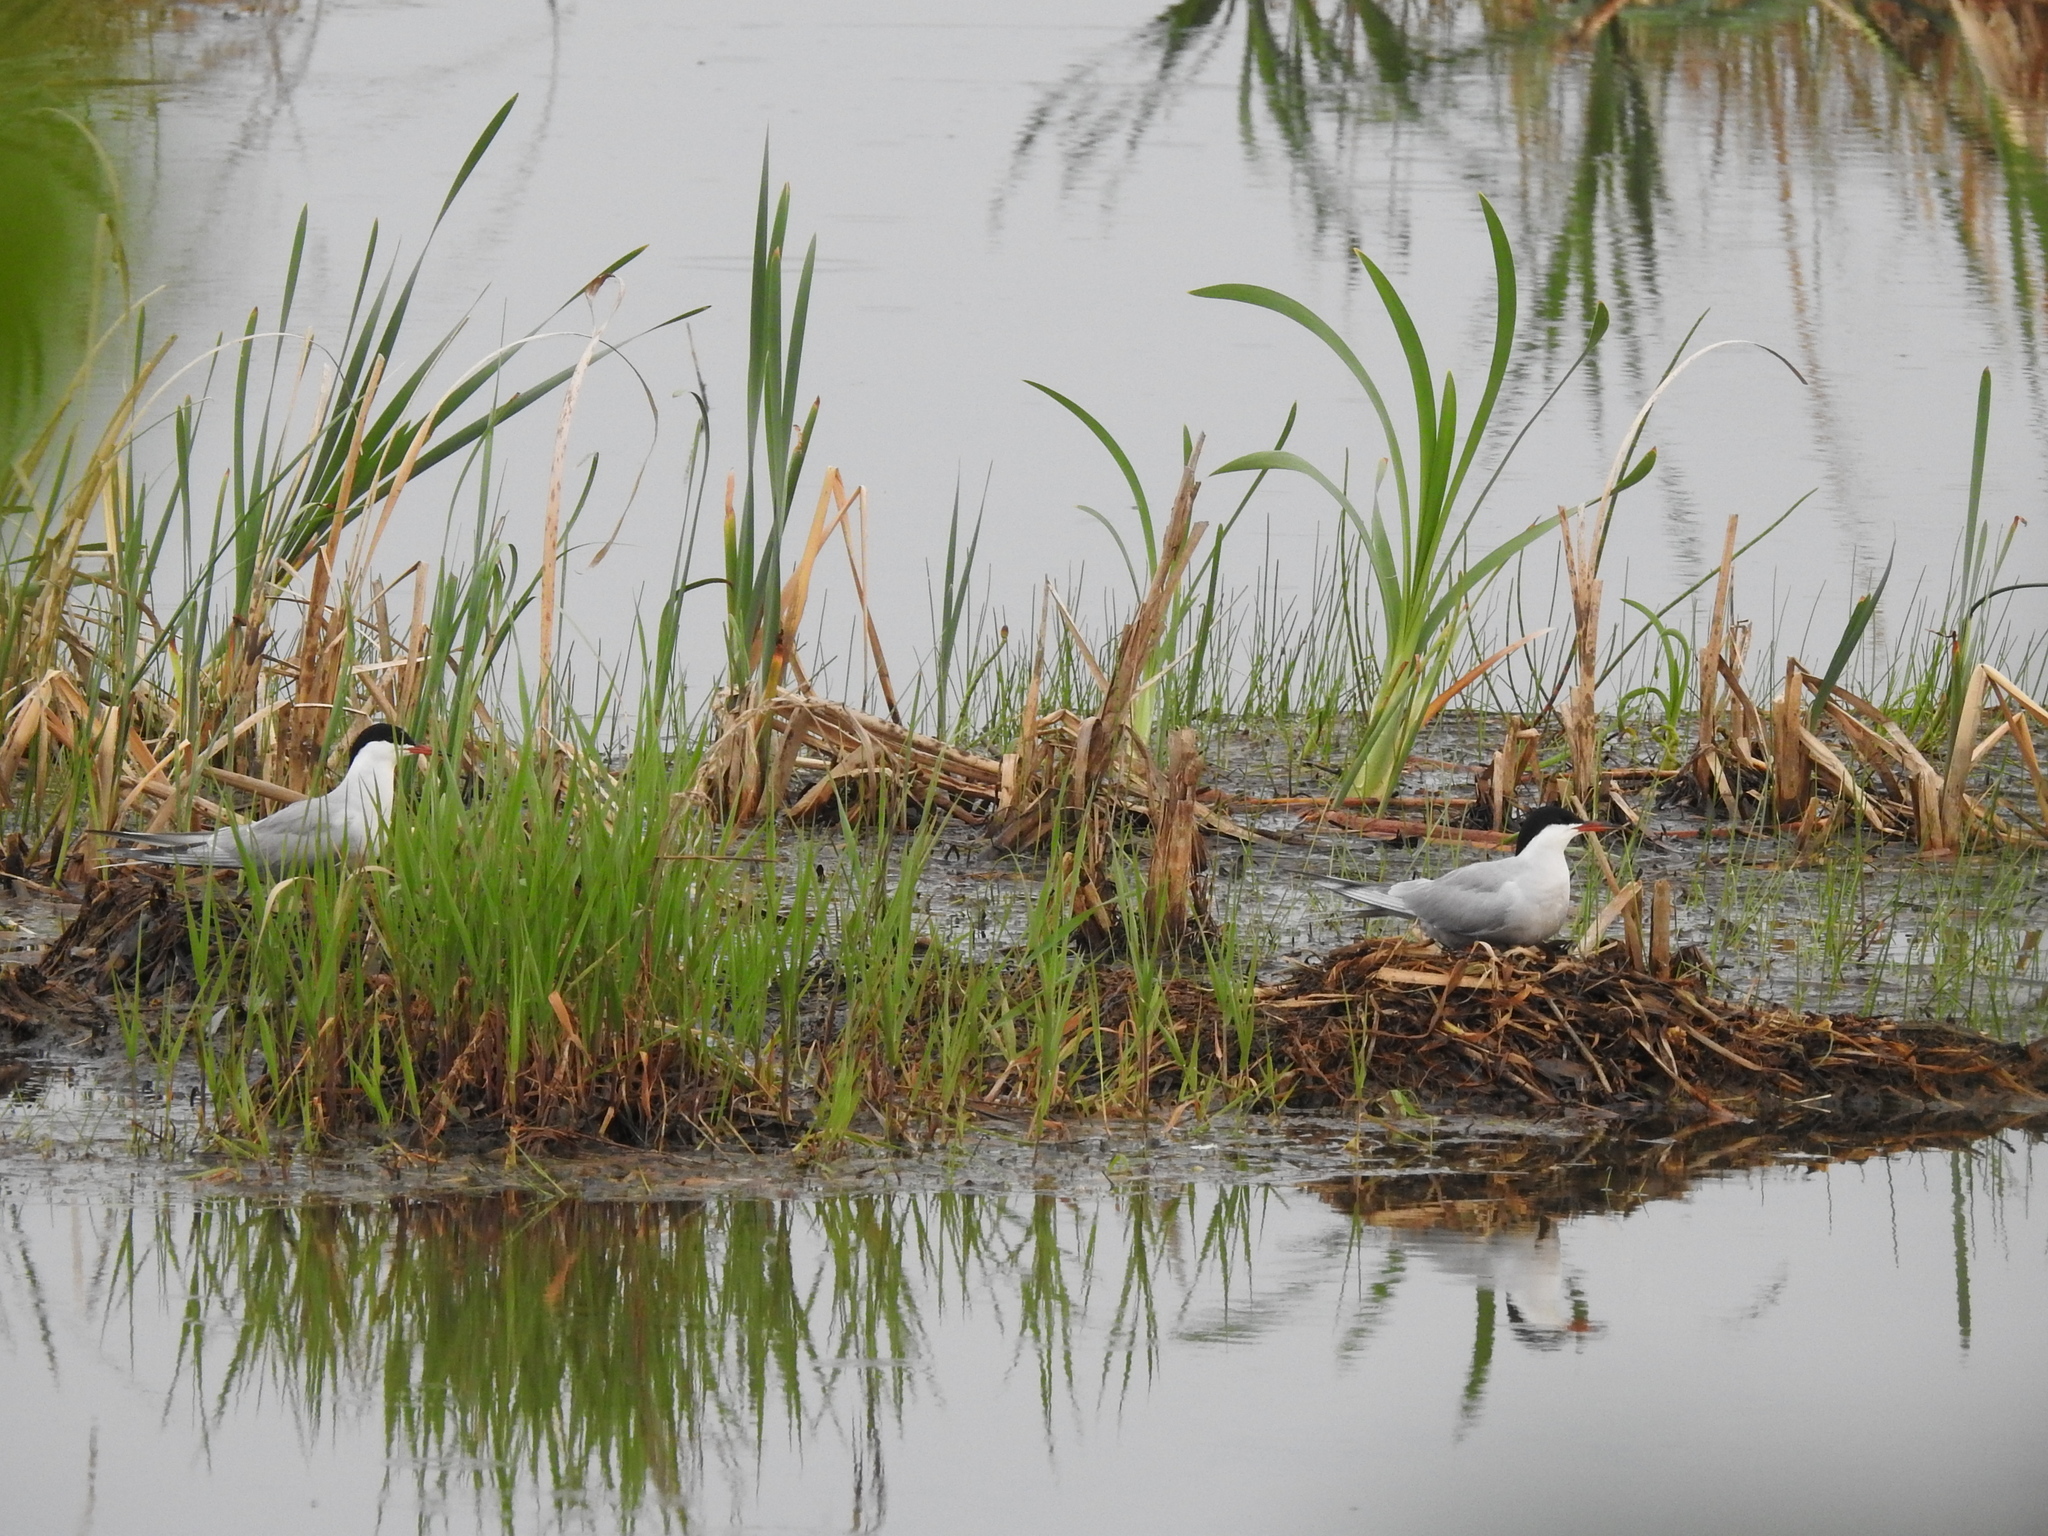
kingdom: Animalia
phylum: Chordata
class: Aves
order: Charadriiformes
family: Laridae
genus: Sterna
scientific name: Sterna hirundo
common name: Common tern
